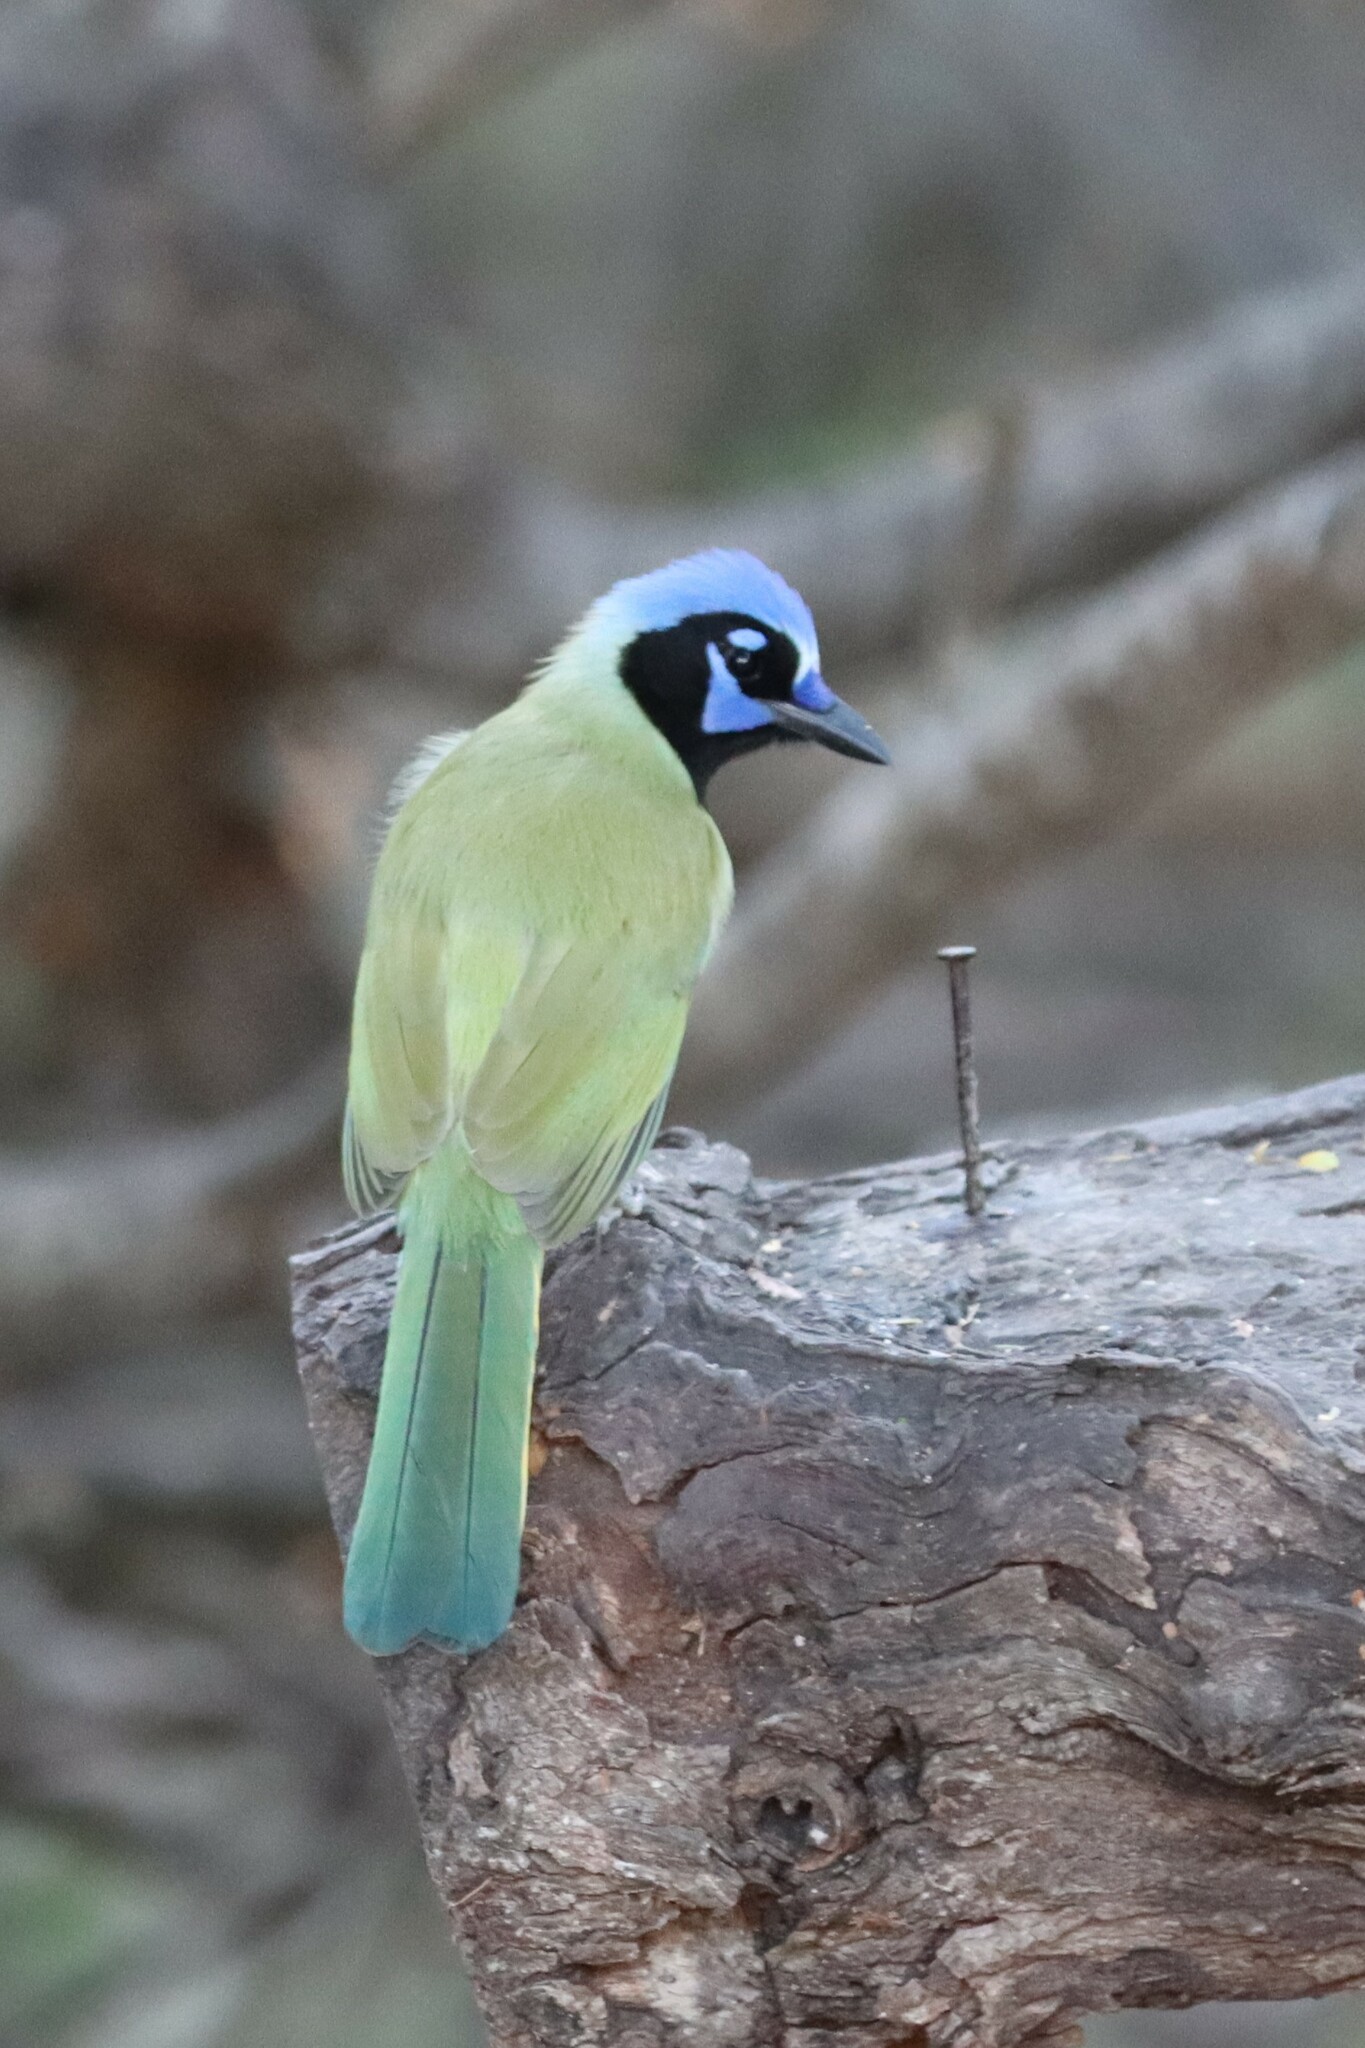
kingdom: Animalia
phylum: Chordata
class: Aves
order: Passeriformes
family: Corvidae
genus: Cyanocorax
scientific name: Cyanocorax yncas
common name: Green jay
